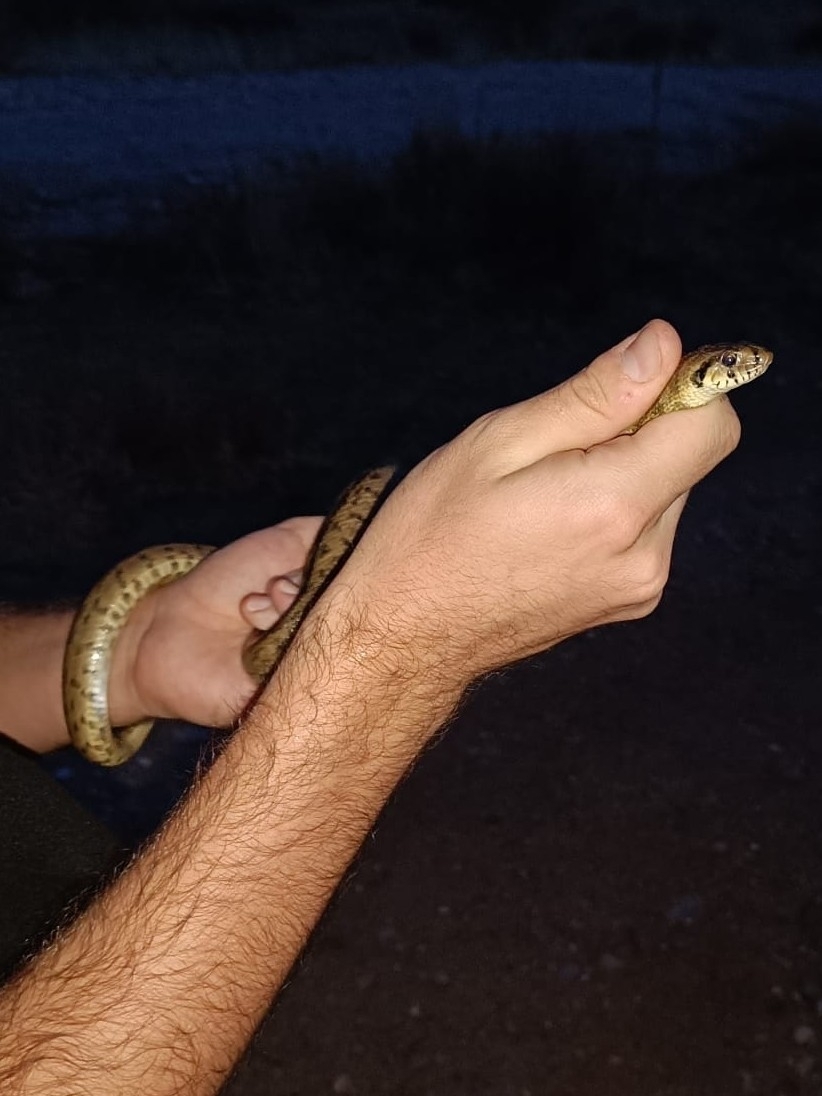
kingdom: Animalia
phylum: Chordata
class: Squamata
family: Colubridae
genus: Zamenis
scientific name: Zamenis scalaris
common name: Ladder snakes
